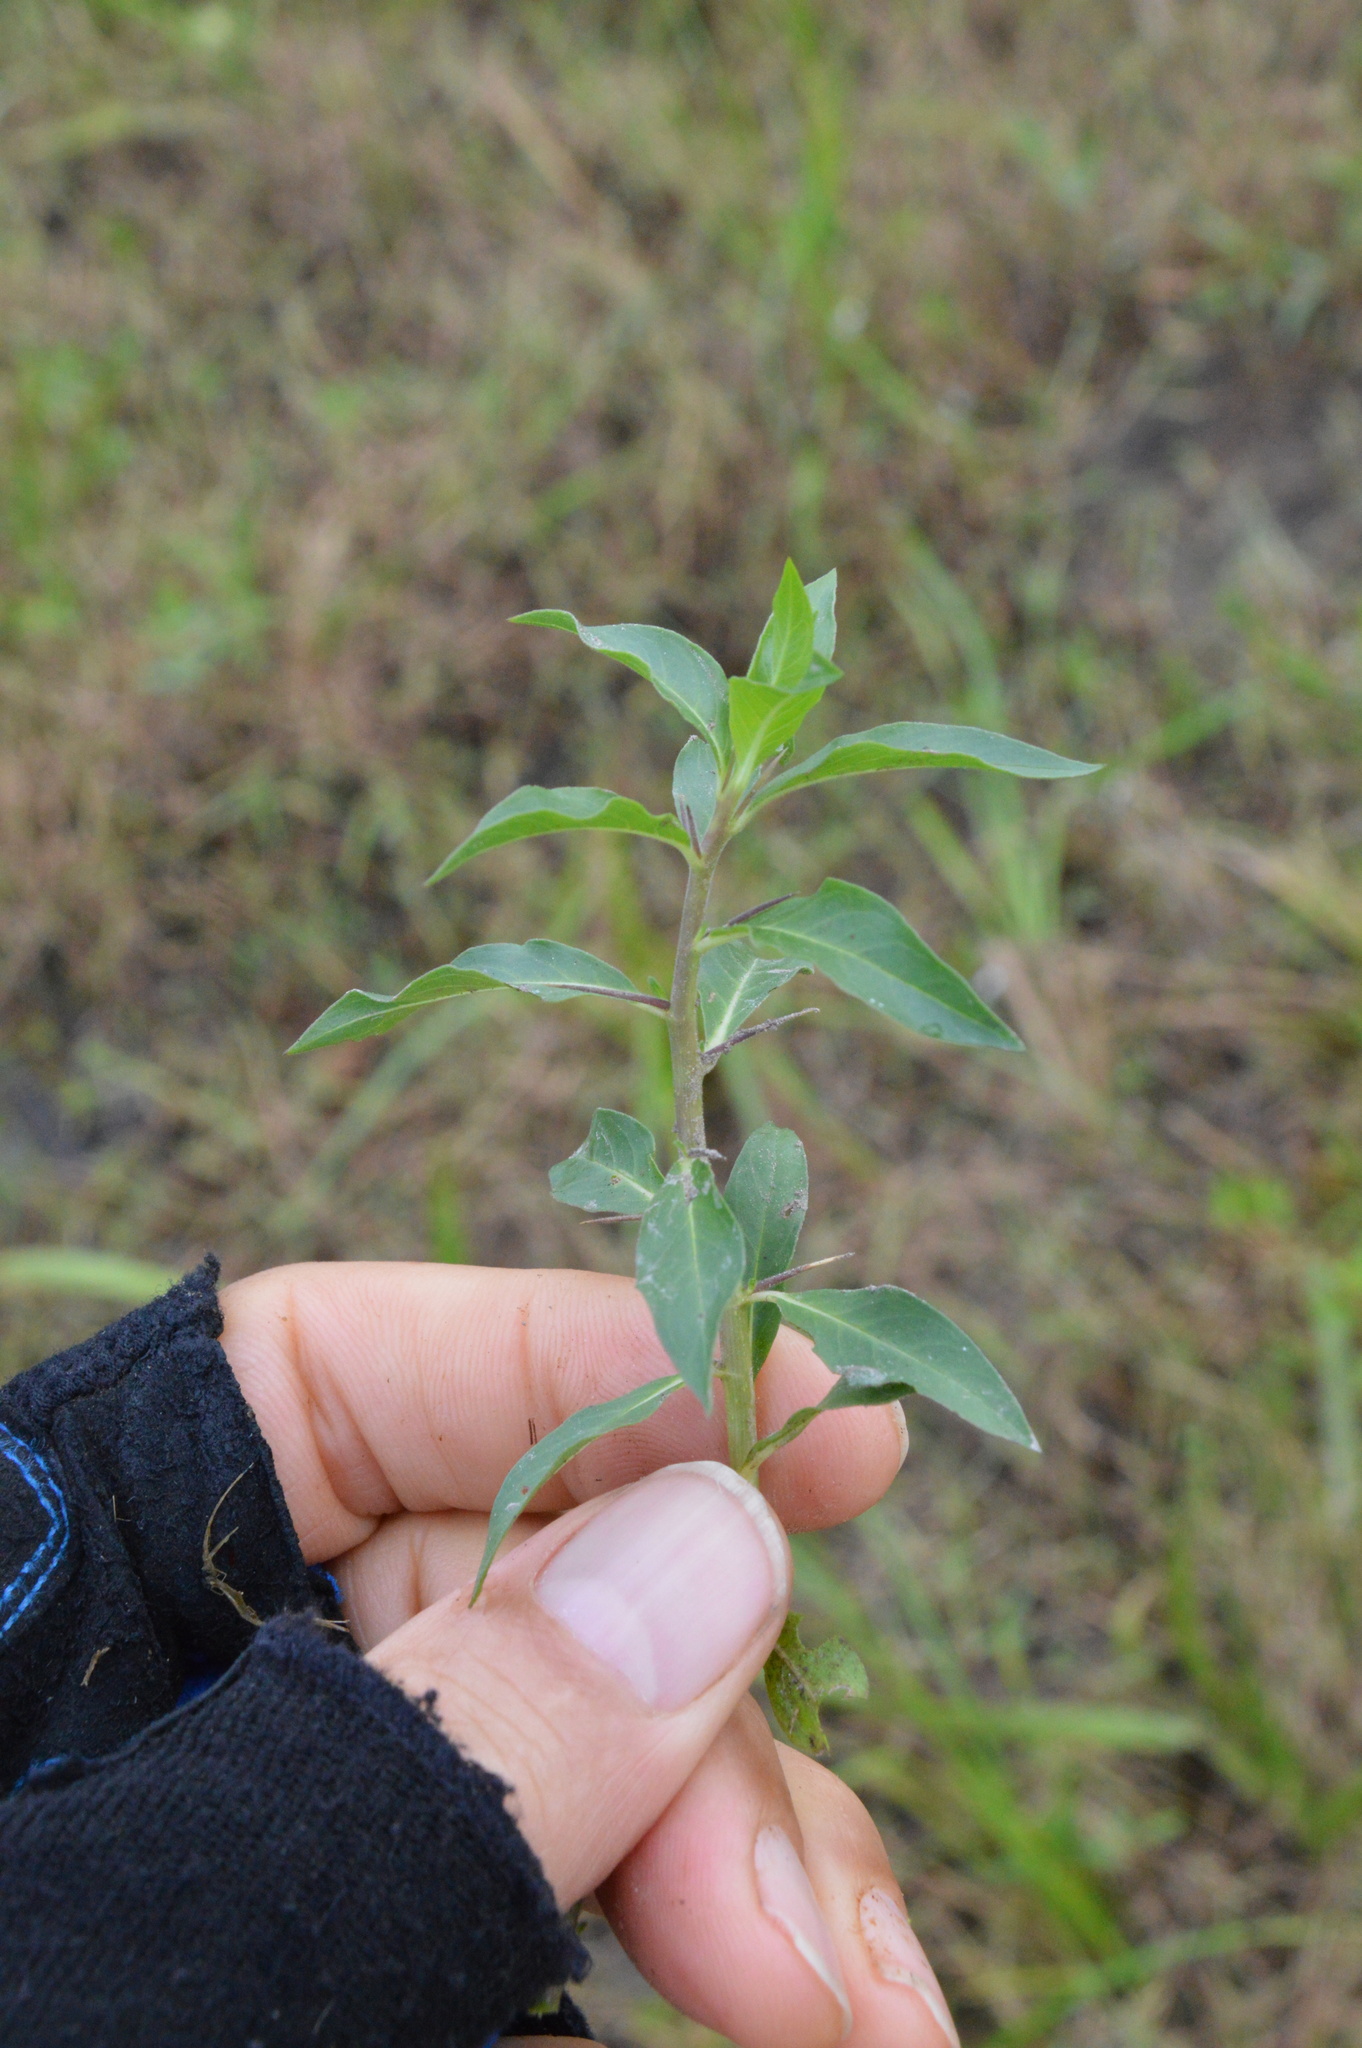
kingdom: Plantae
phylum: Tracheophyta
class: Magnoliopsida
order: Solanales
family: Hydroleaceae
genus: Hydrolea
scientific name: Hydrolea ovata
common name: Ovate false fiddleleaf
